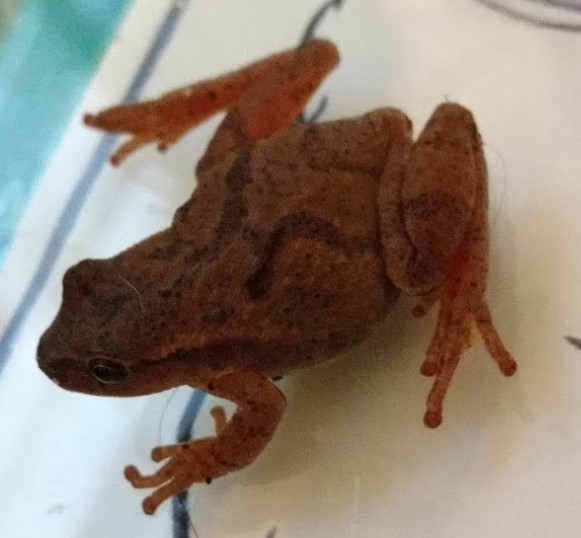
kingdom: Animalia
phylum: Chordata
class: Amphibia
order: Anura
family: Hylidae
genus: Pseudacris
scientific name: Pseudacris crucifer
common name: Spring peeper
